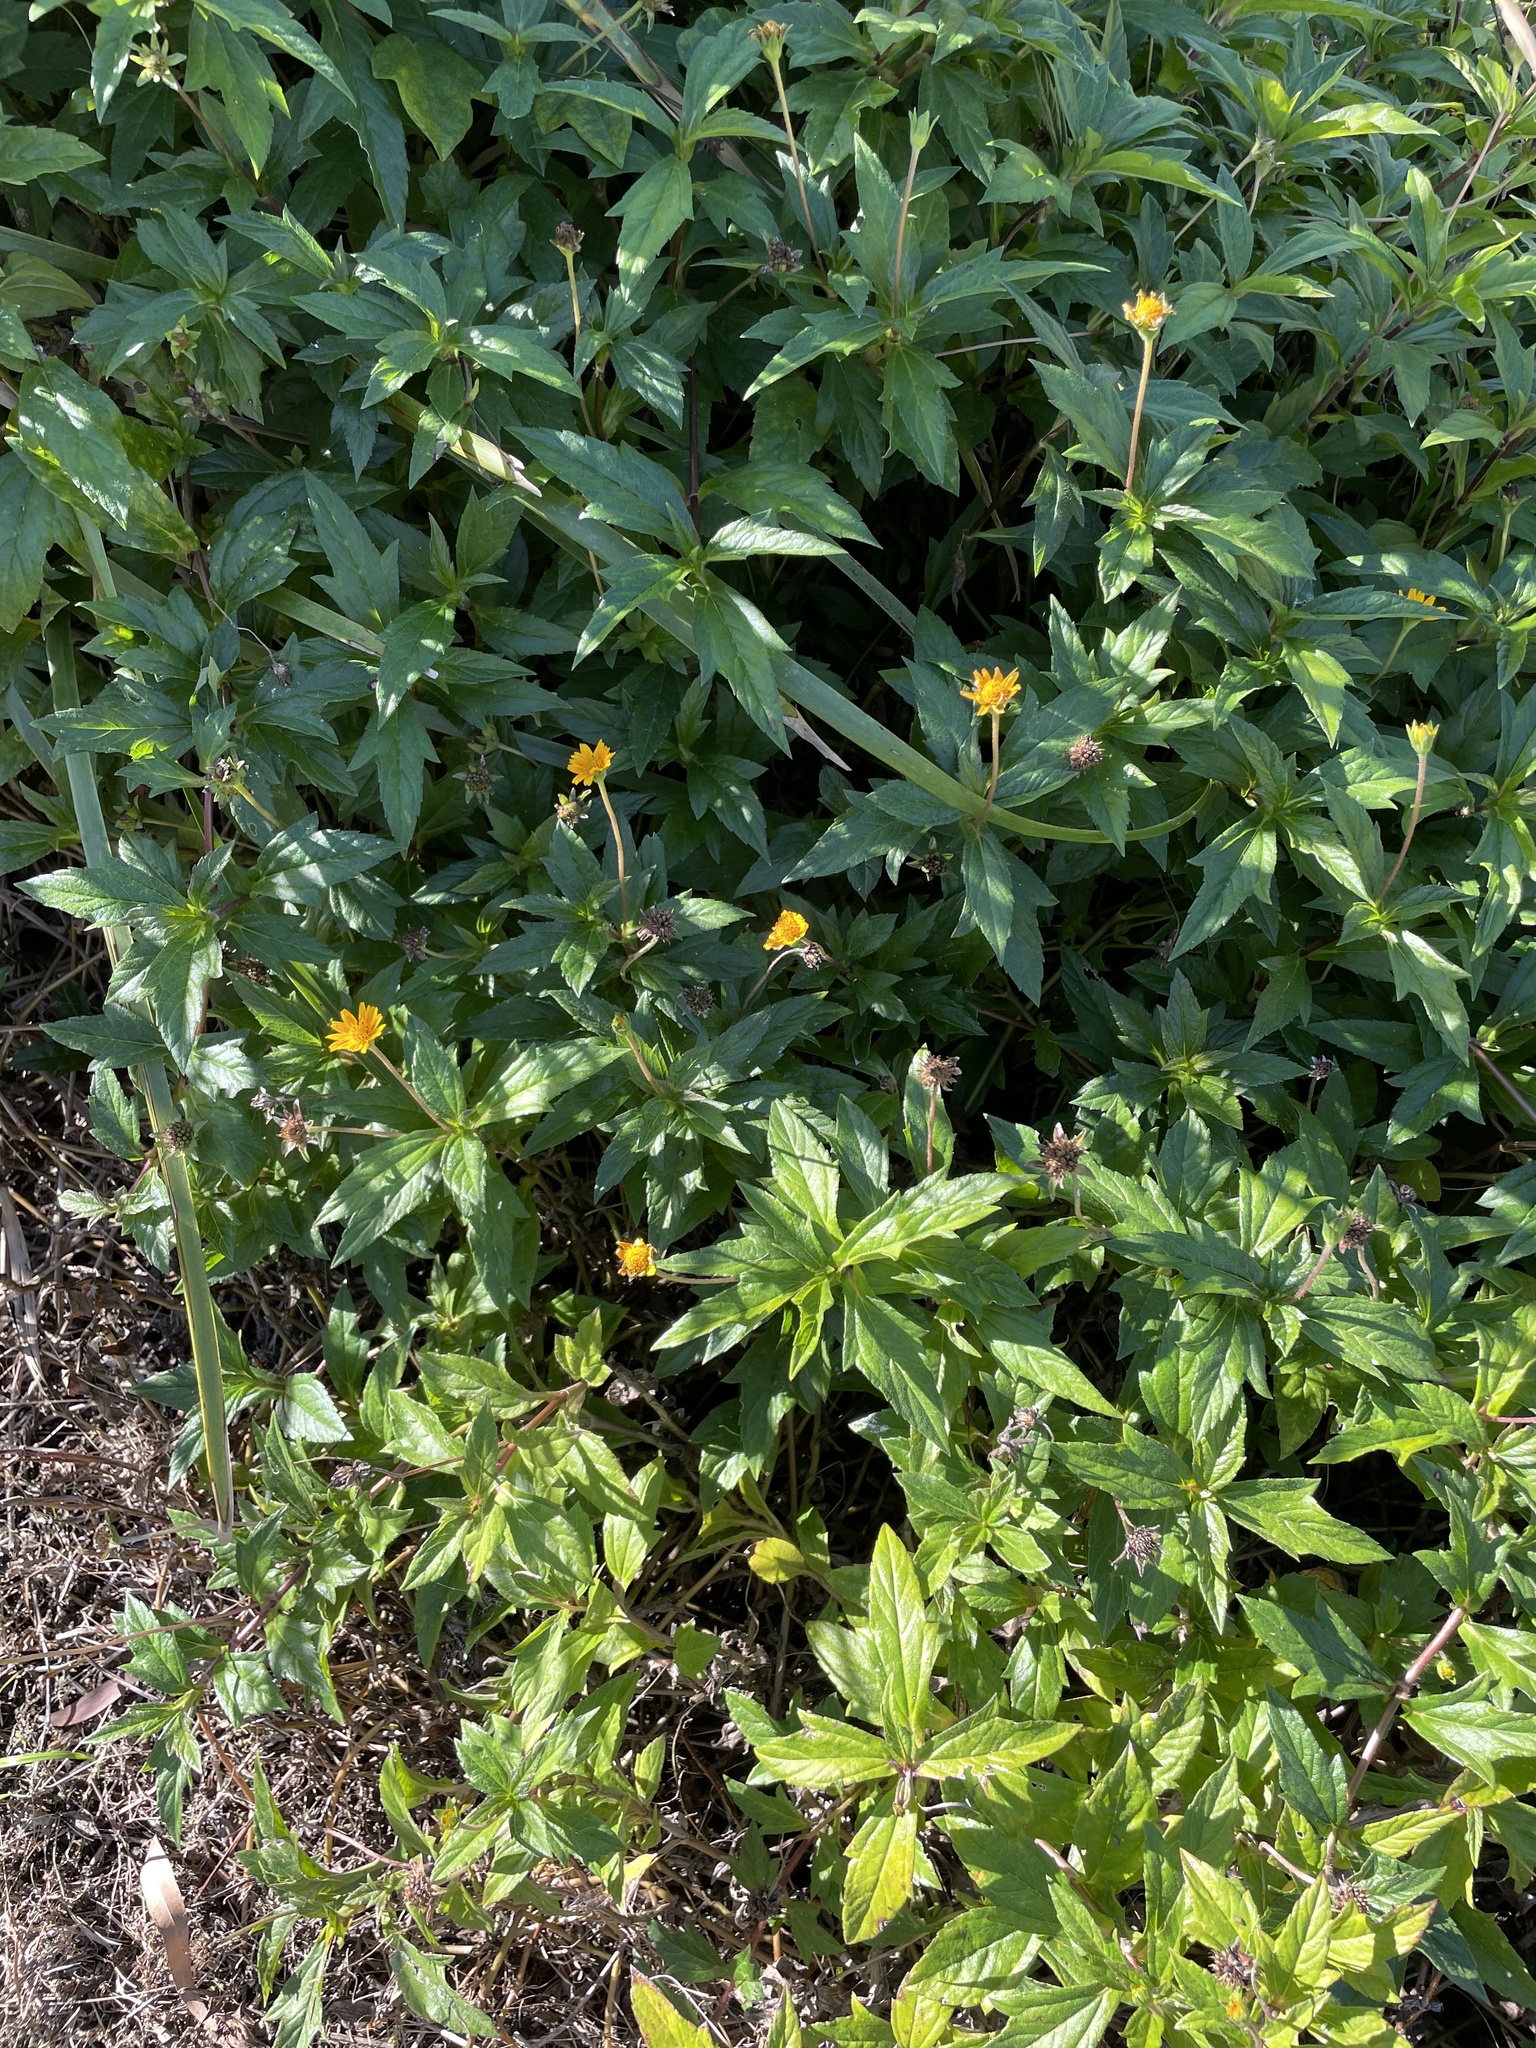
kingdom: Plantae
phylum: Tracheophyta
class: Magnoliopsida
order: Asterales
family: Asteraceae
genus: Sphagneticola
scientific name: Sphagneticola trilobata
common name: Bay biscayne creeping-oxeye
